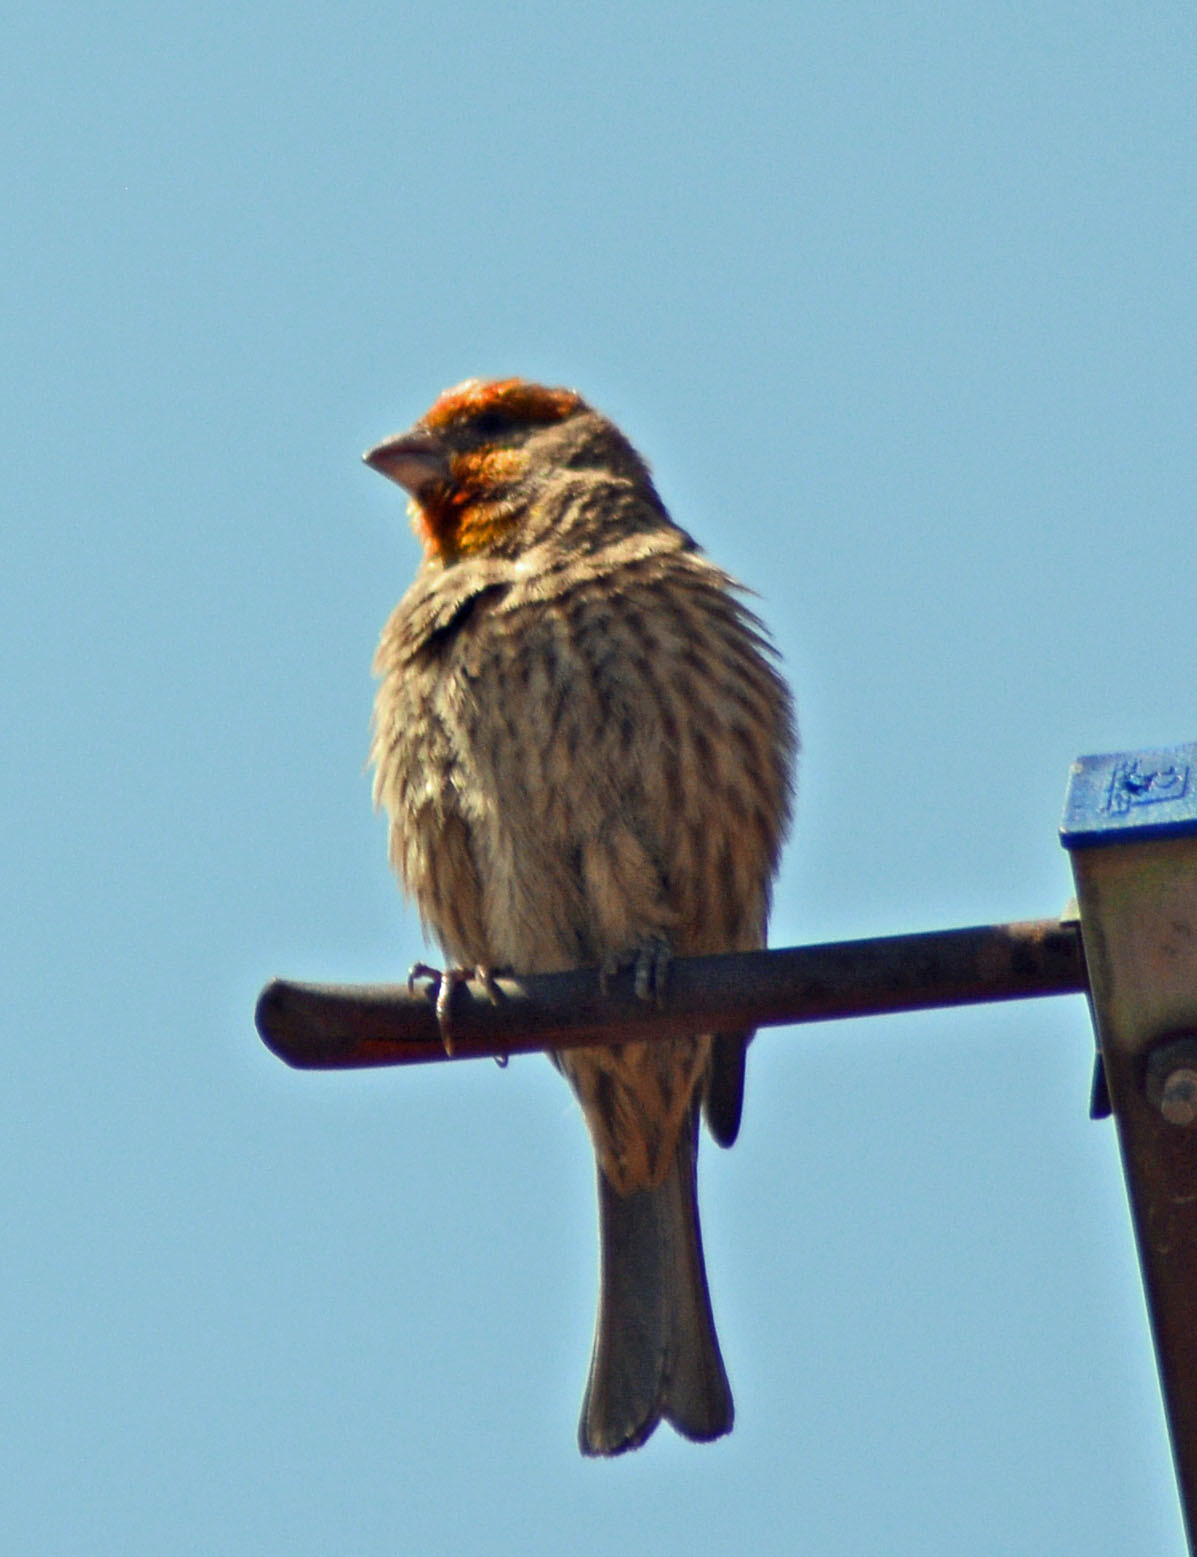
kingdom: Animalia
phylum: Chordata
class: Aves
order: Passeriformes
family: Fringillidae
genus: Haemorhous
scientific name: Haemorhous mexicanus
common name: House finch
